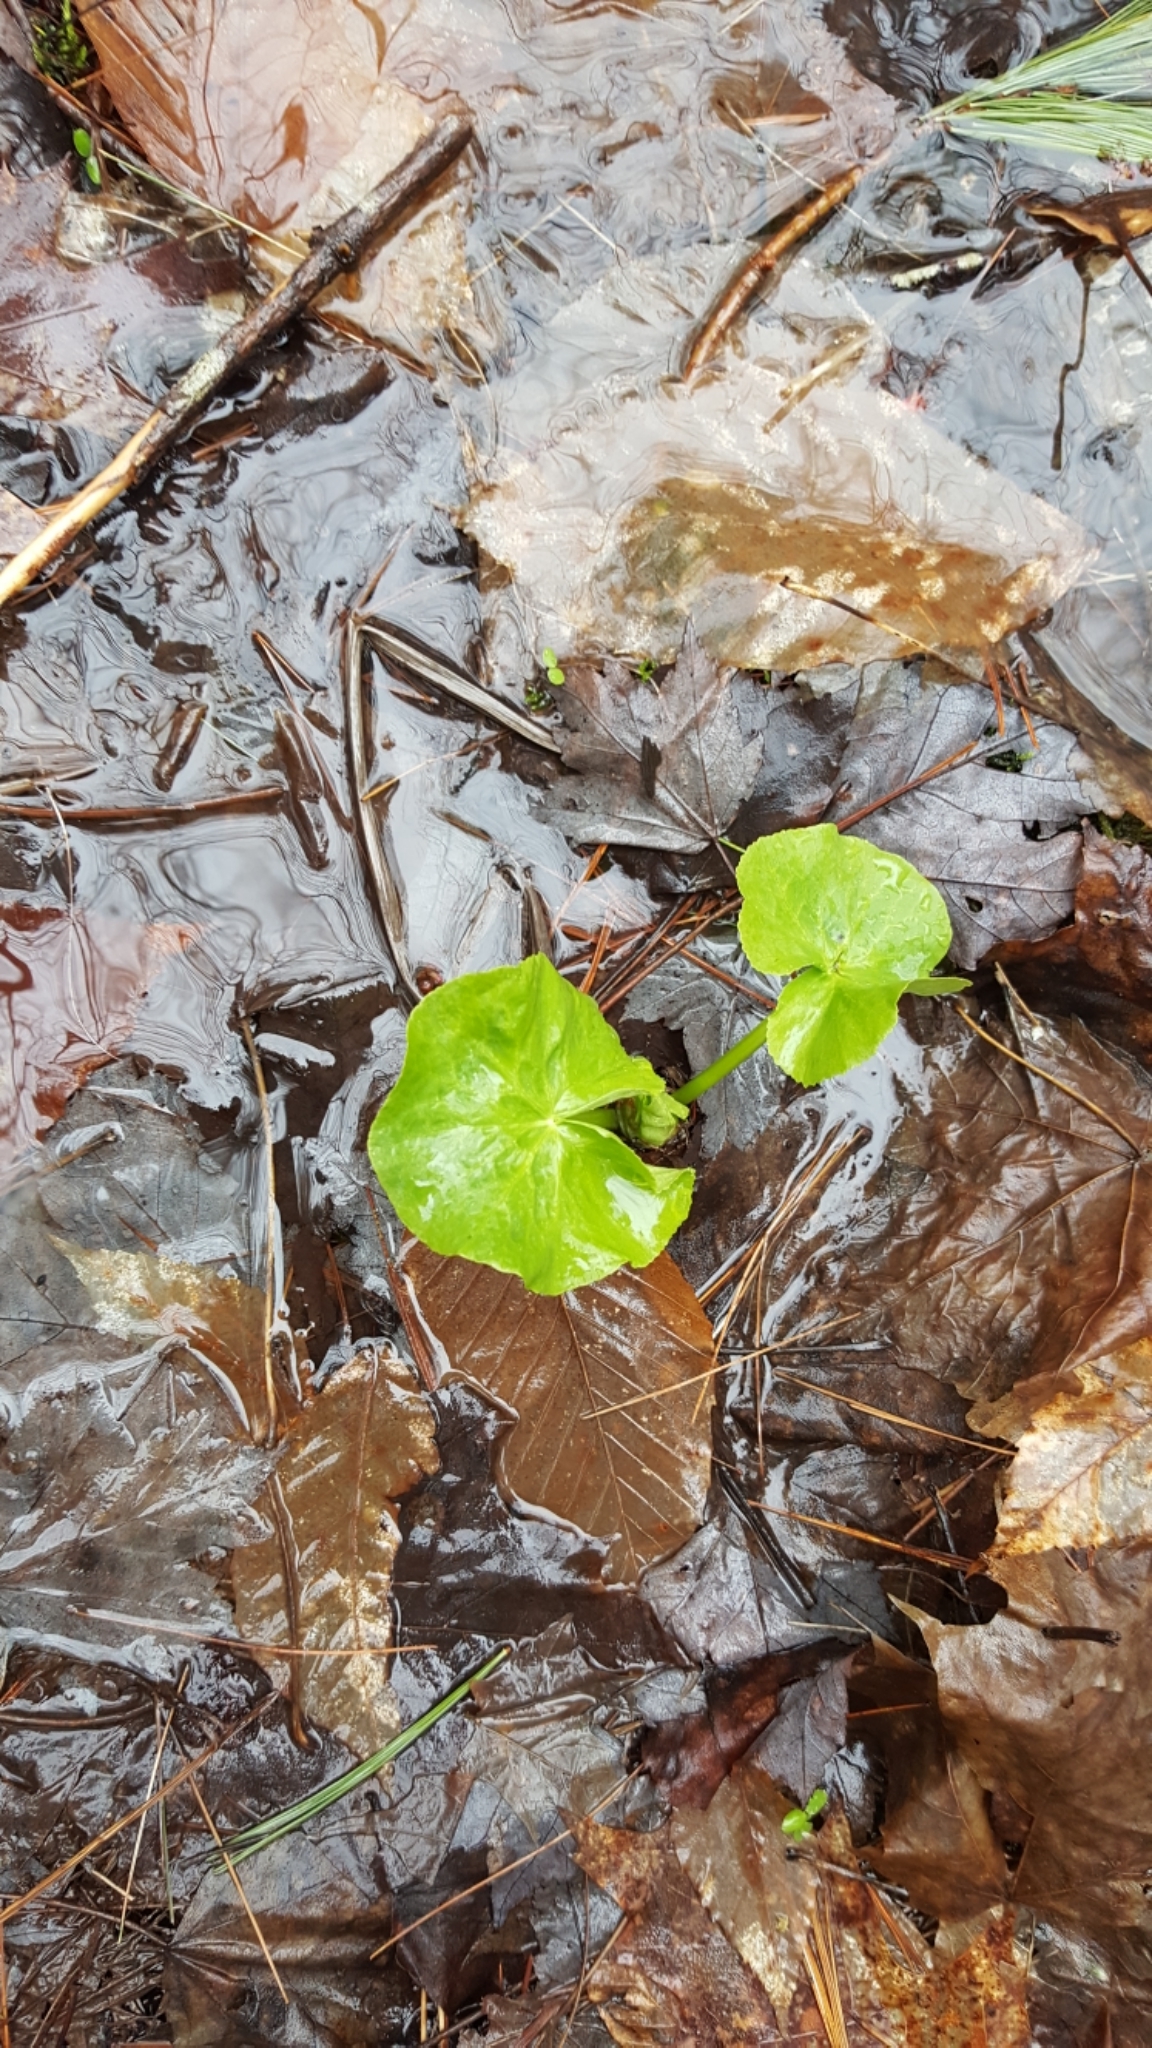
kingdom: Plantae
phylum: Tracheophyta
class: Magnoliopsida
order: Ranunculales
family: Ranunculaceae
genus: Caltha
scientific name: Caltha palustris
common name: Marsh marigold
